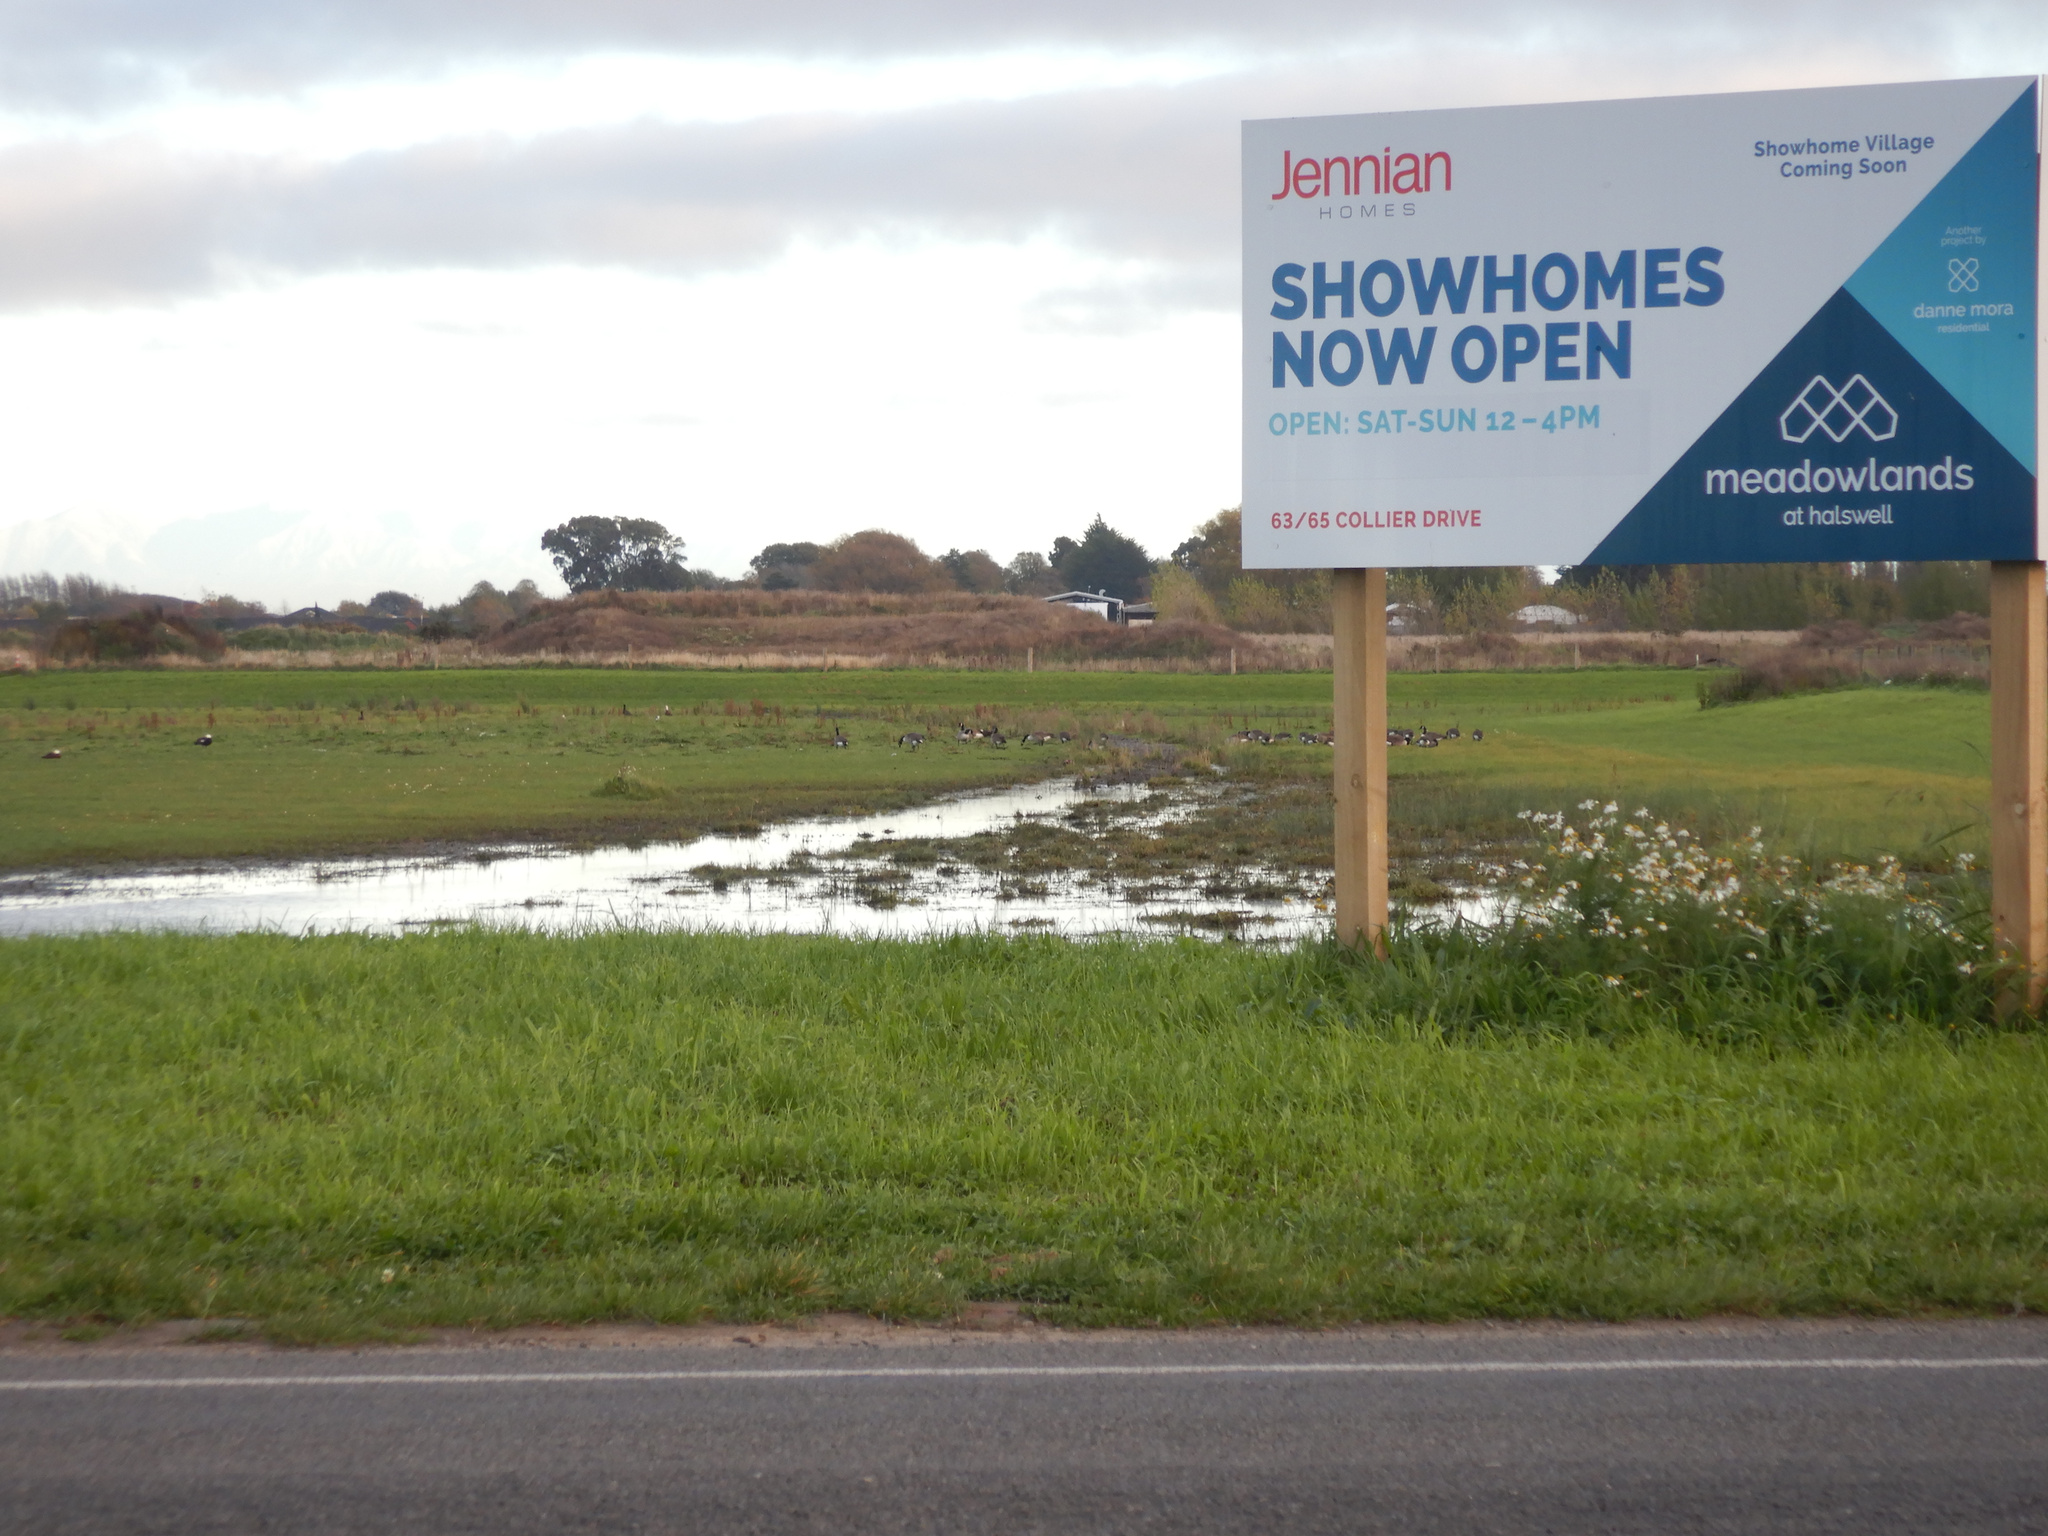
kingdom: Animalia
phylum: Chordata
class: Aves
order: Anseriformes
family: Anatidae
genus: Branta
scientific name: Branta canadensis
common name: Canada goose
